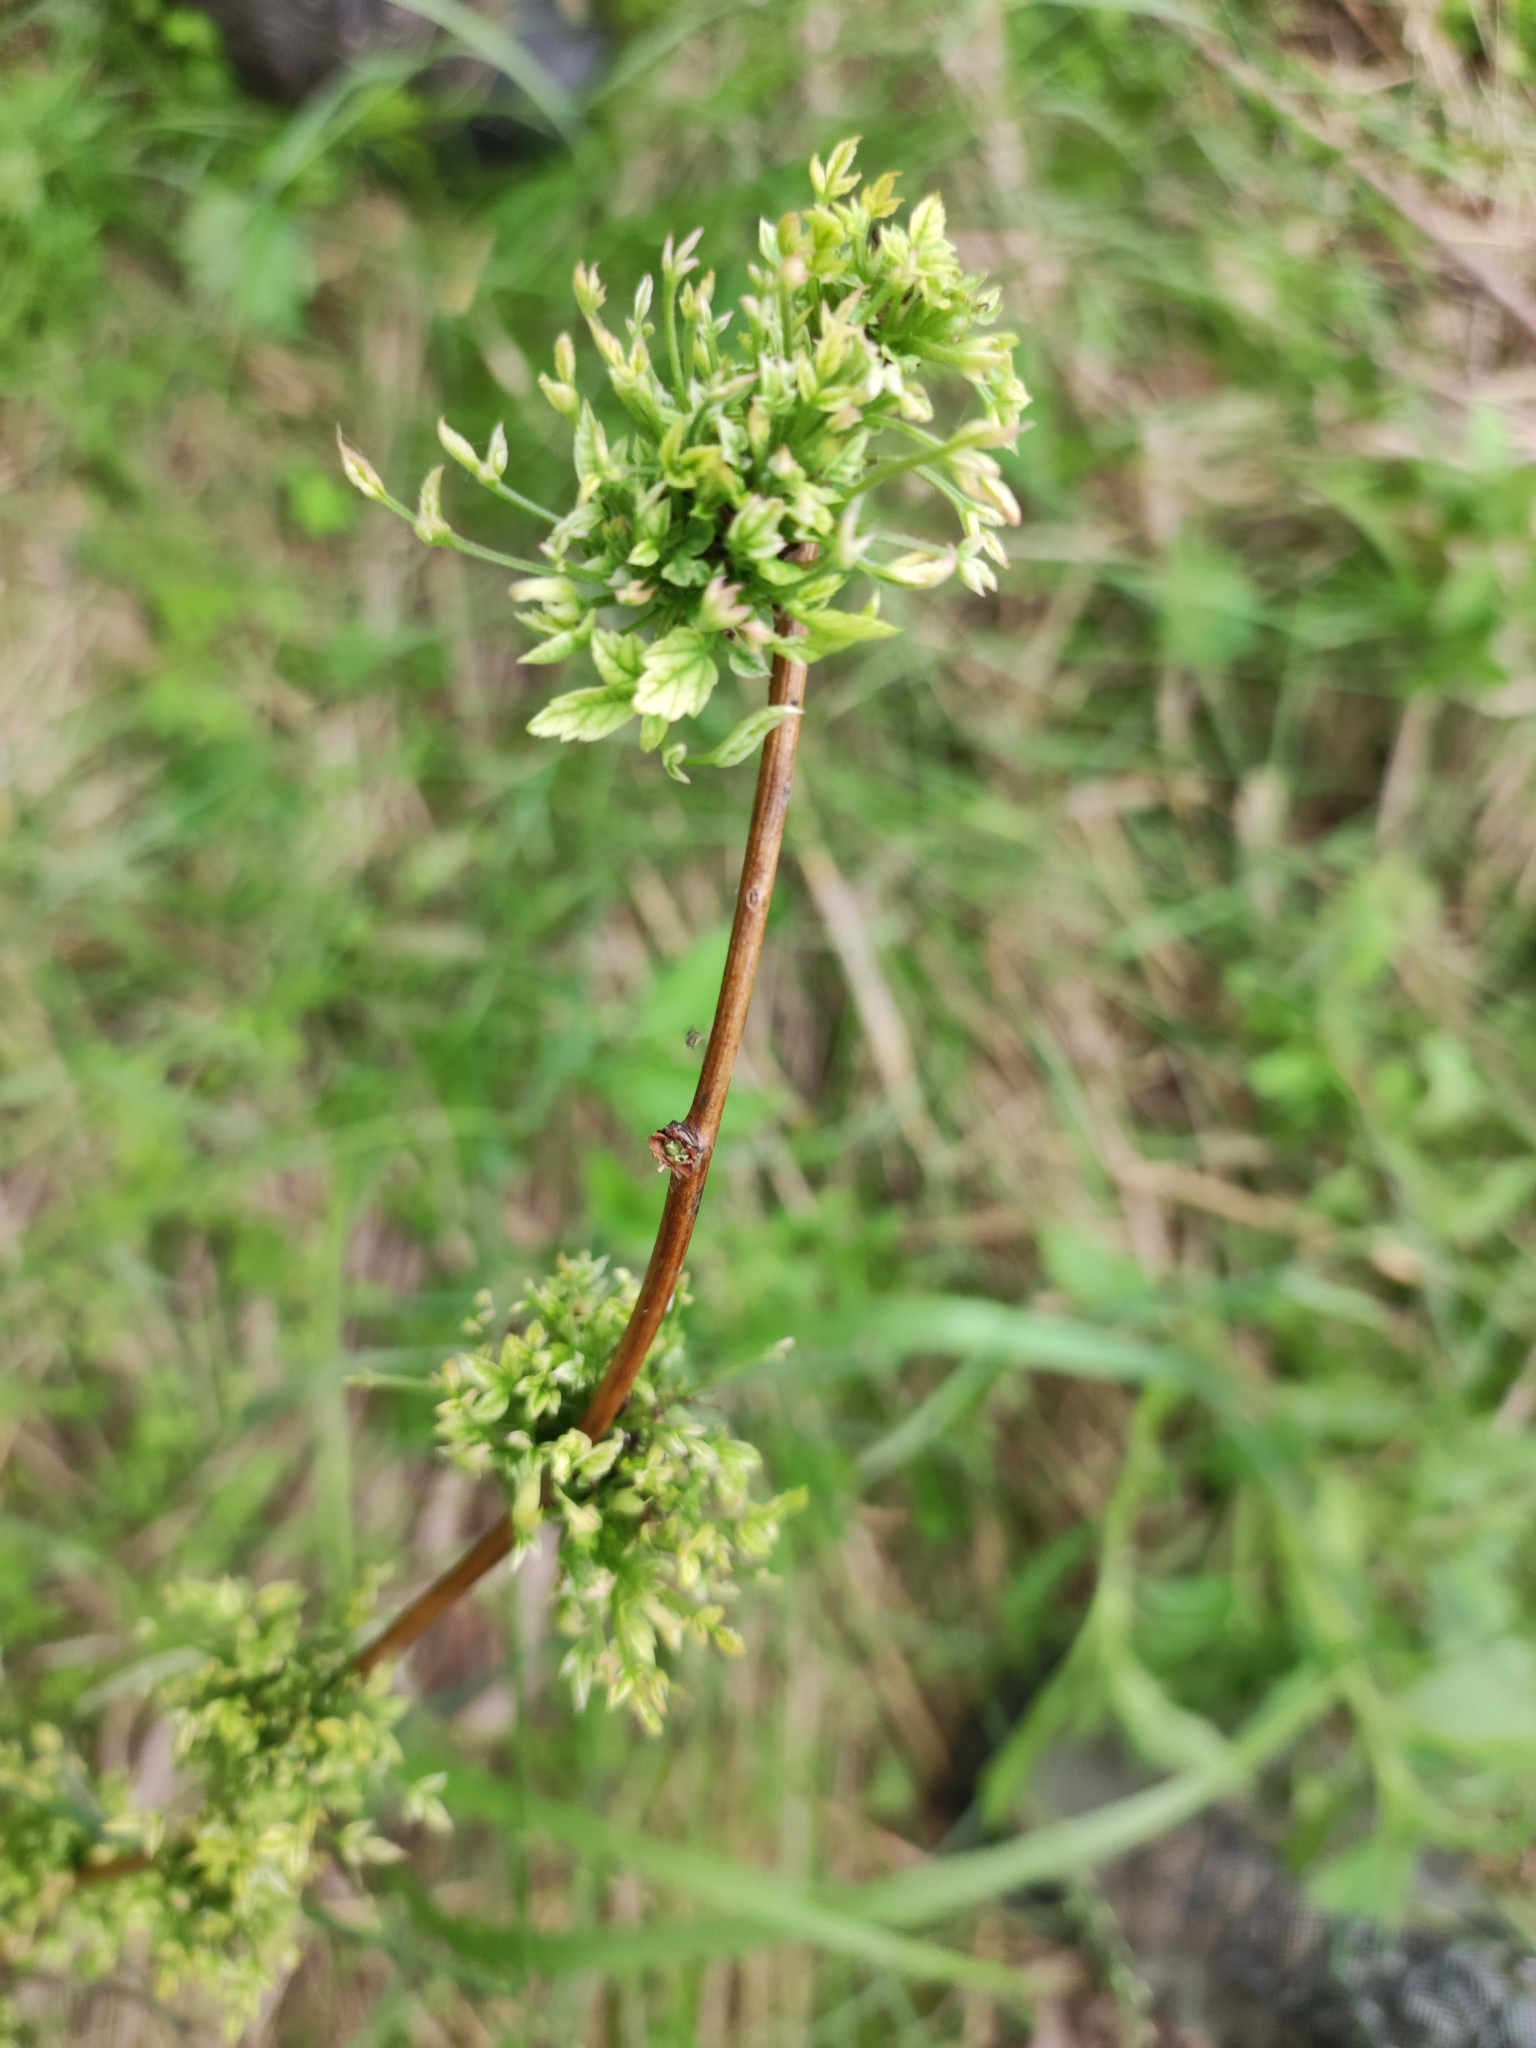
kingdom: Plantae
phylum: Tracheophyta
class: Magnoliopsida
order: Rosales
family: Rosaceae
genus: Rubus
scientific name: Rubus idaeus
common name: Raspberry
